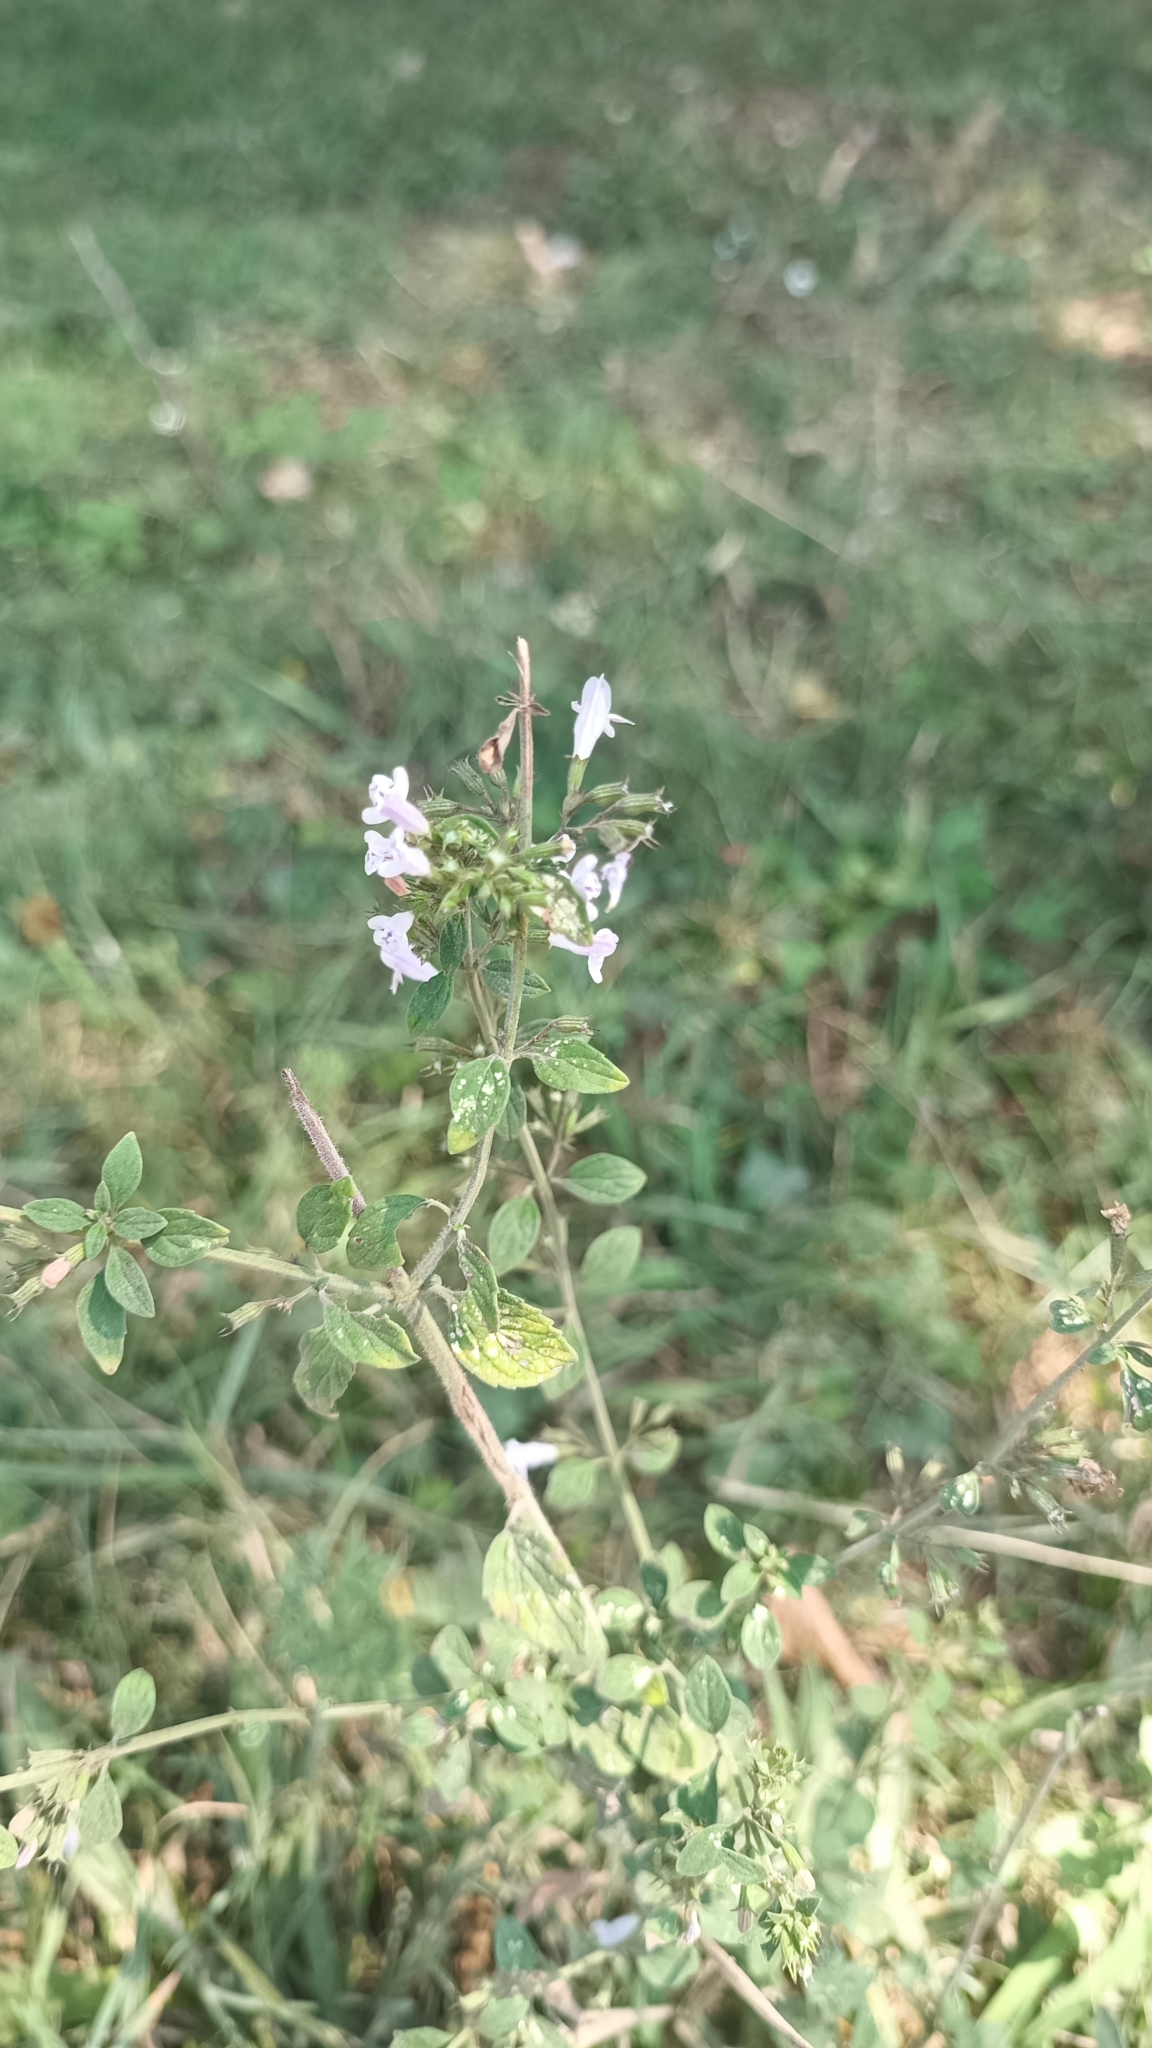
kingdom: Plantae
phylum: Tracheophyta
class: Magnoliopsida
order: Lamiales
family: Lamiaceae
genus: Clinopodium
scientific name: Clinopodium nepeta
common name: Lesser calamint
